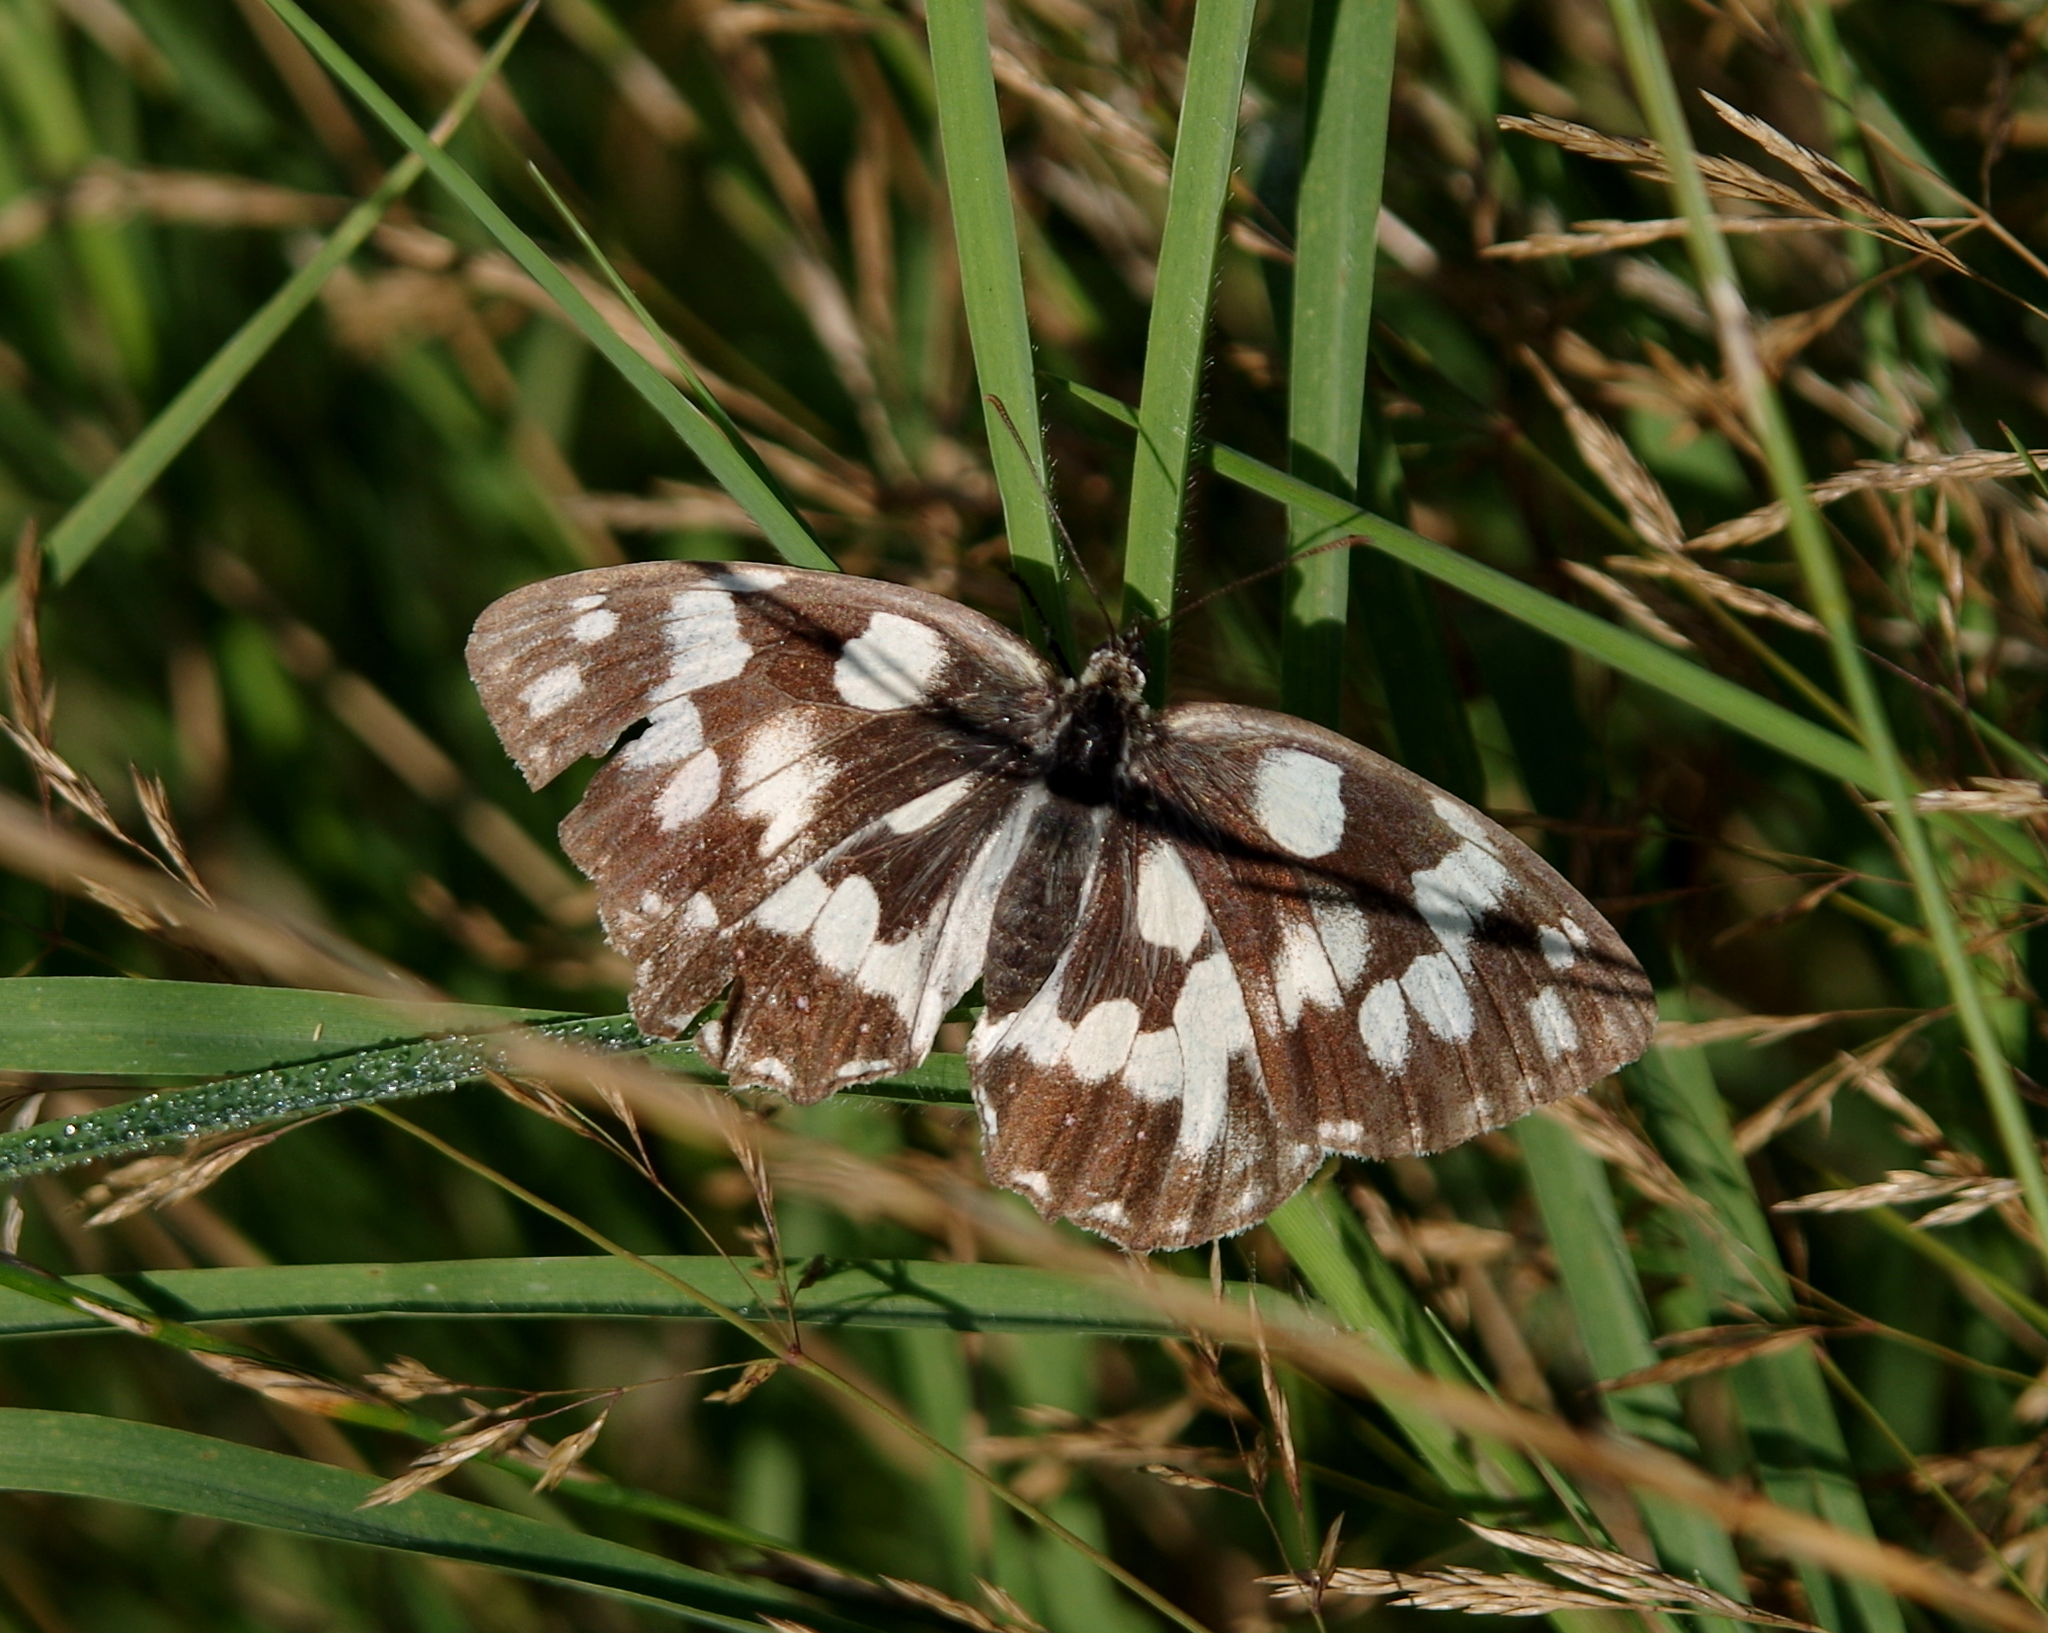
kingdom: Animalia
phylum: Arthropoda
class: Insecta
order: Lepidoptera
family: Nymphalidae
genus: Melanargia
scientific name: Melanargia galathea
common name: Marbled white
